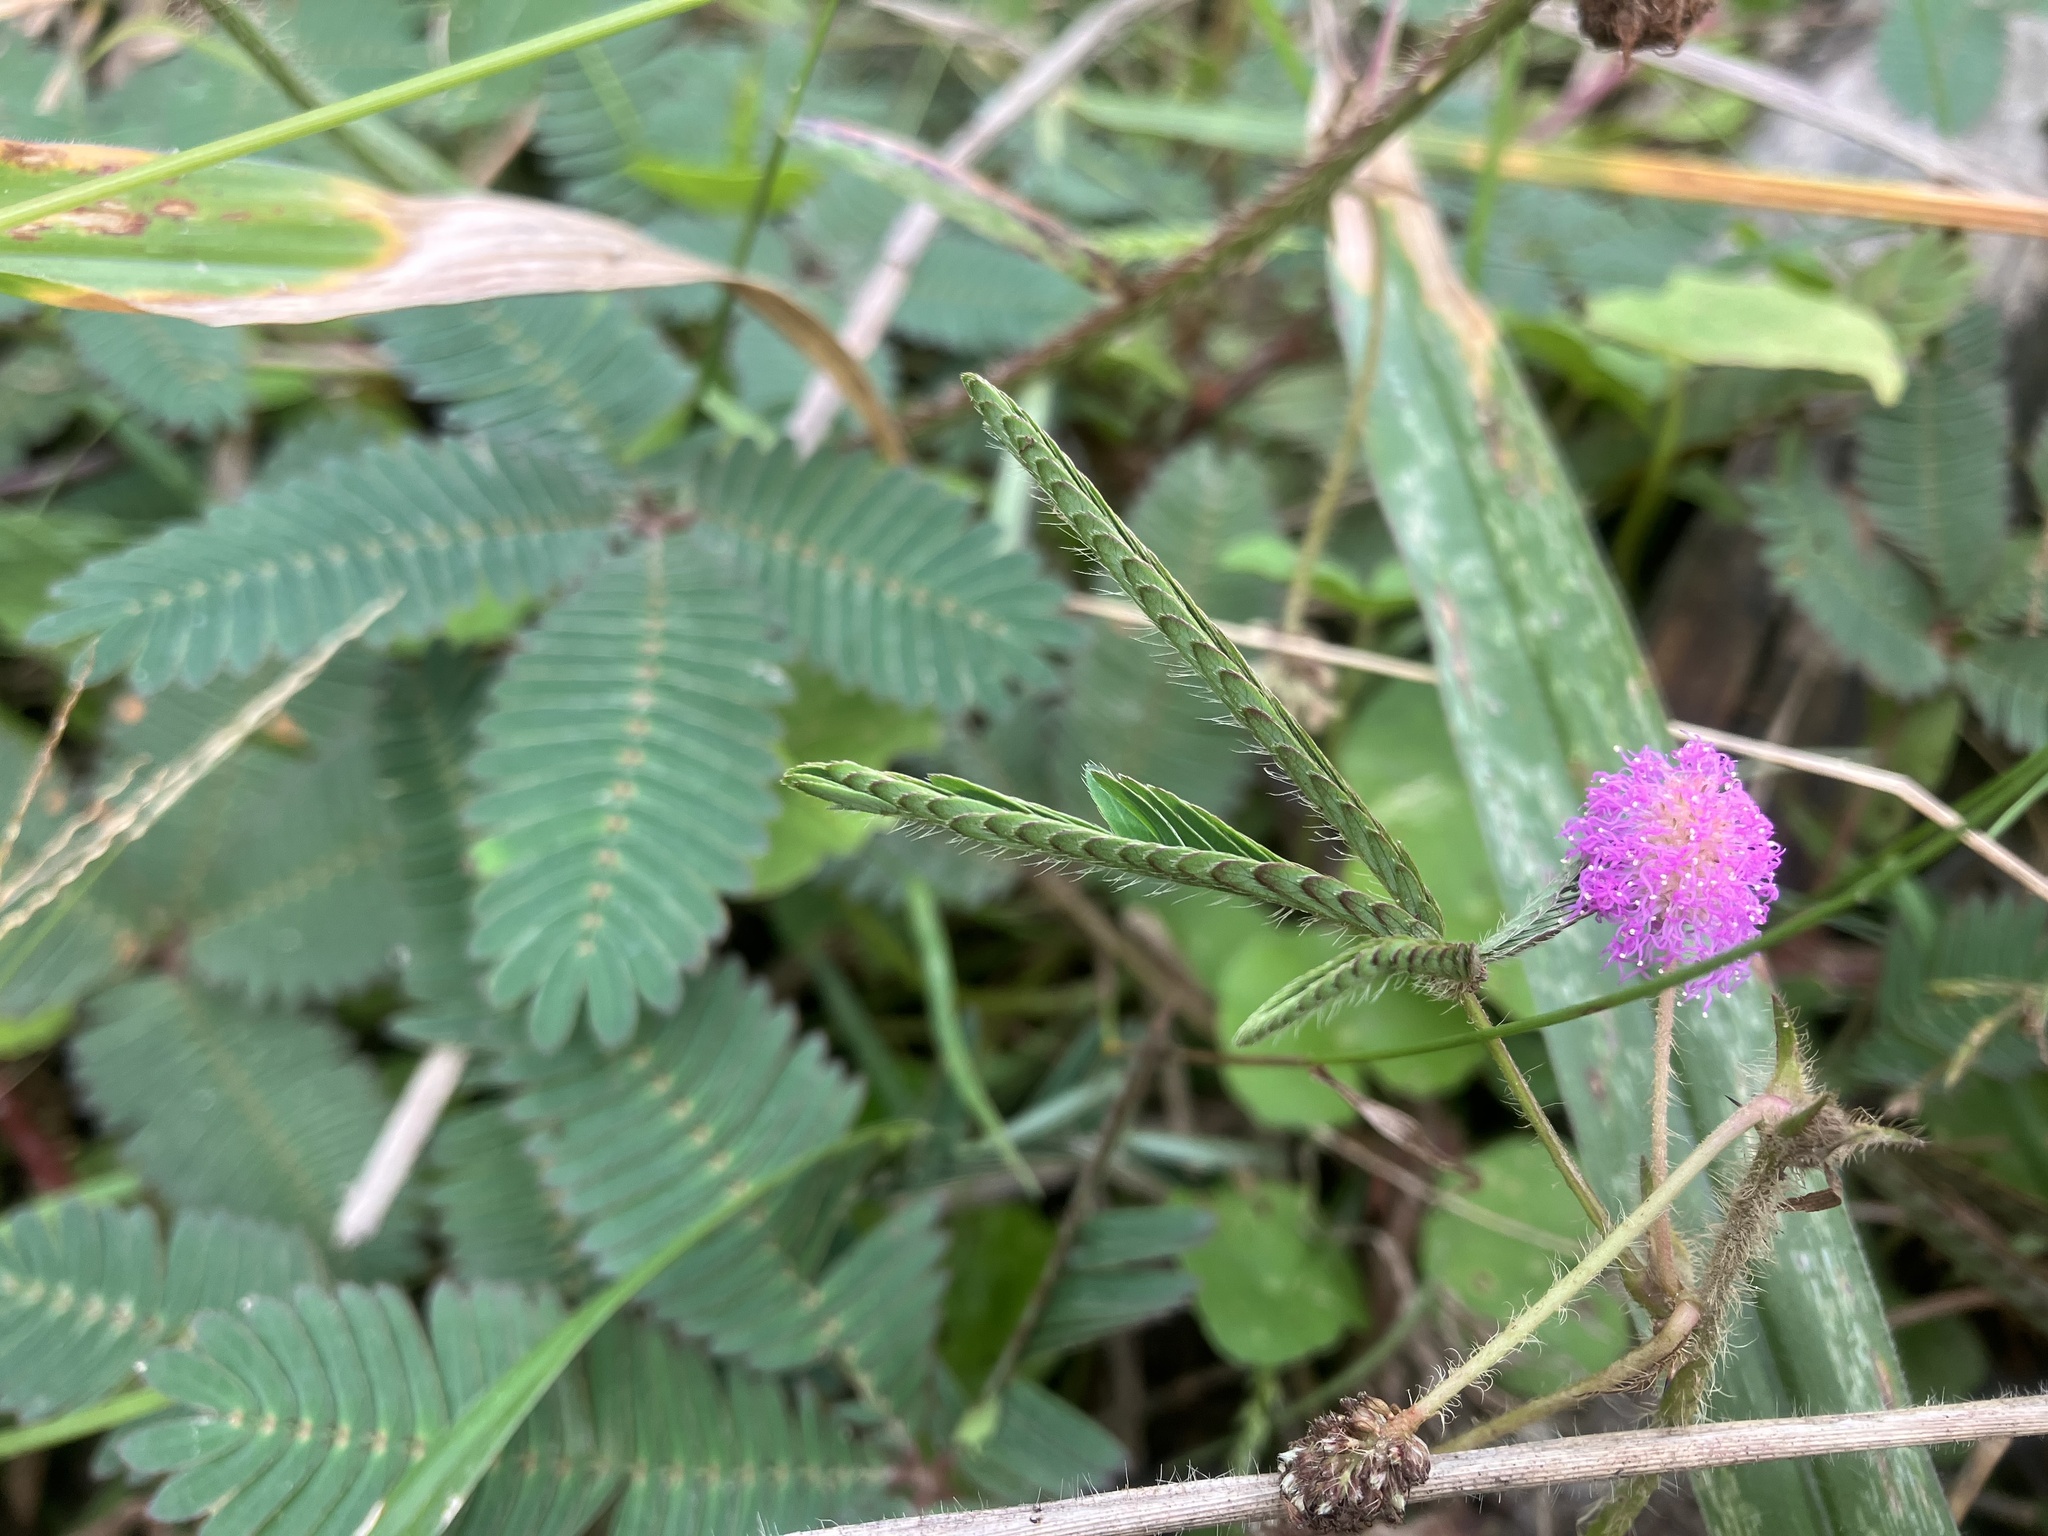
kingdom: Plantae
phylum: Tracheophyta
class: Magnoliopsida
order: Fabales
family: Fabaceae
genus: Mimosa
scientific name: Mimosa pudica
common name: Sensitive plant
